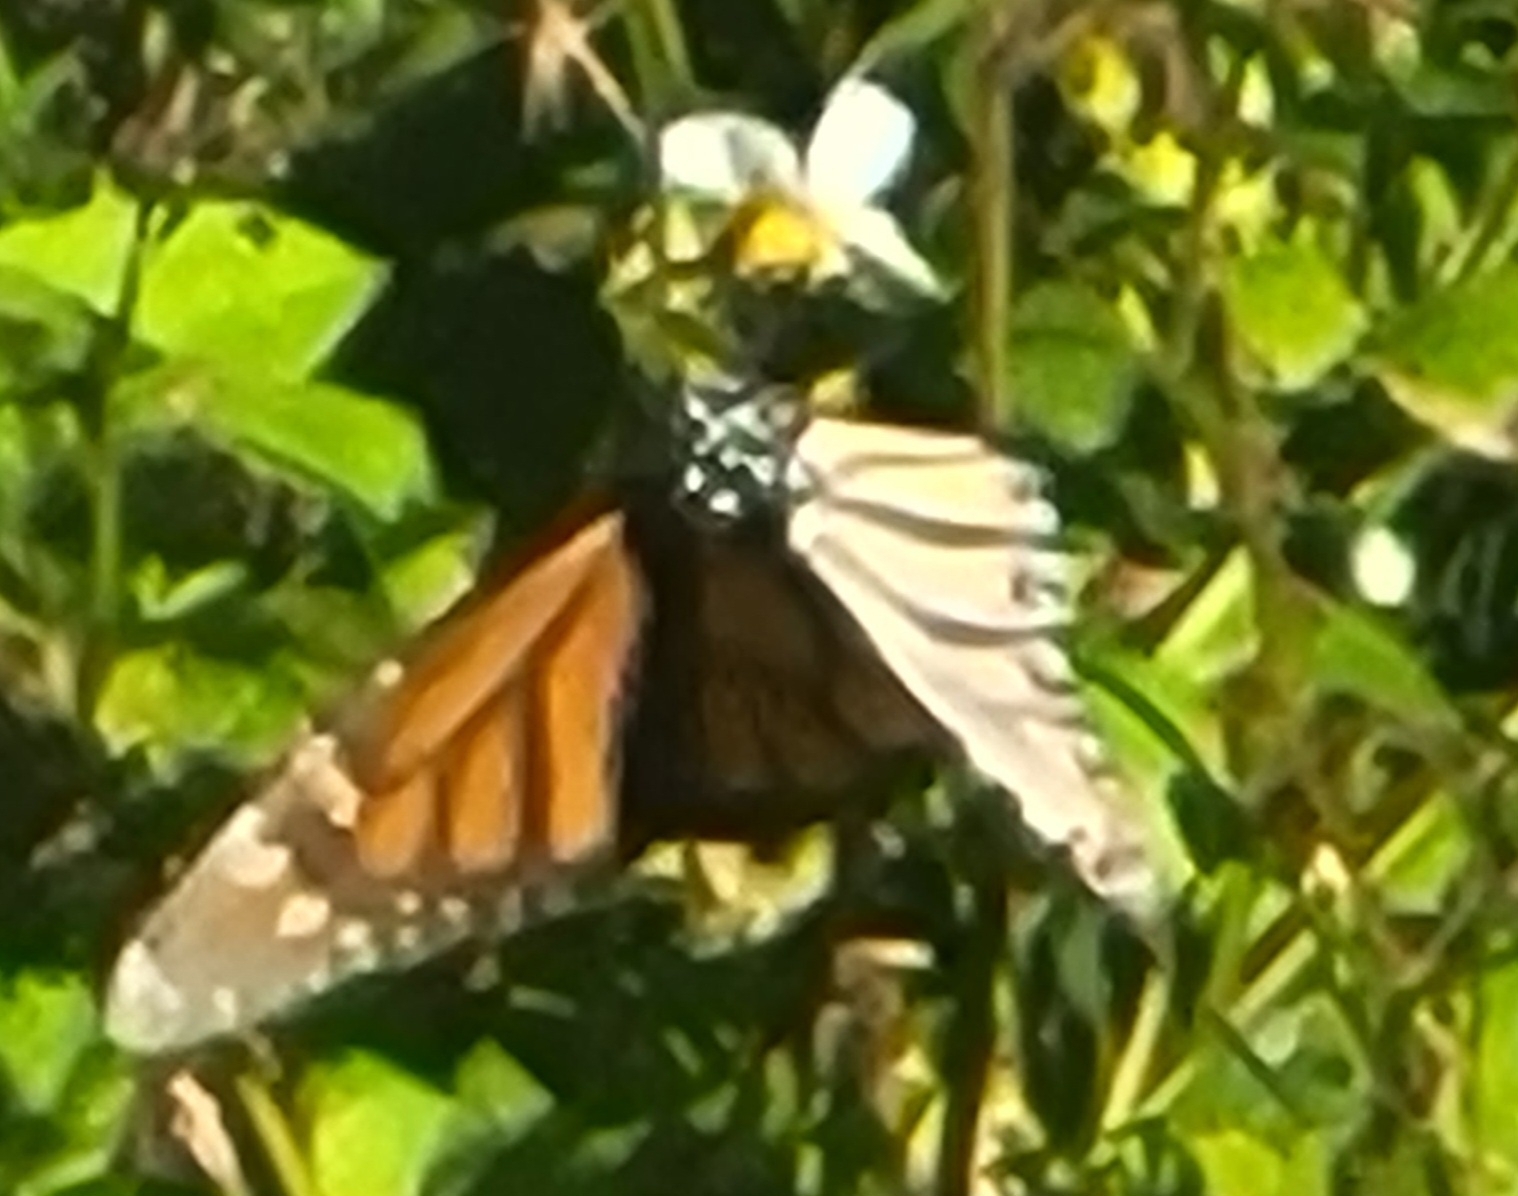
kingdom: Animalia
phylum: Arthropoda
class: Insecta
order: Lepidoptera
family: Nymphalidae
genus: Danaus
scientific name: Danaus plexippus
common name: Monarch
